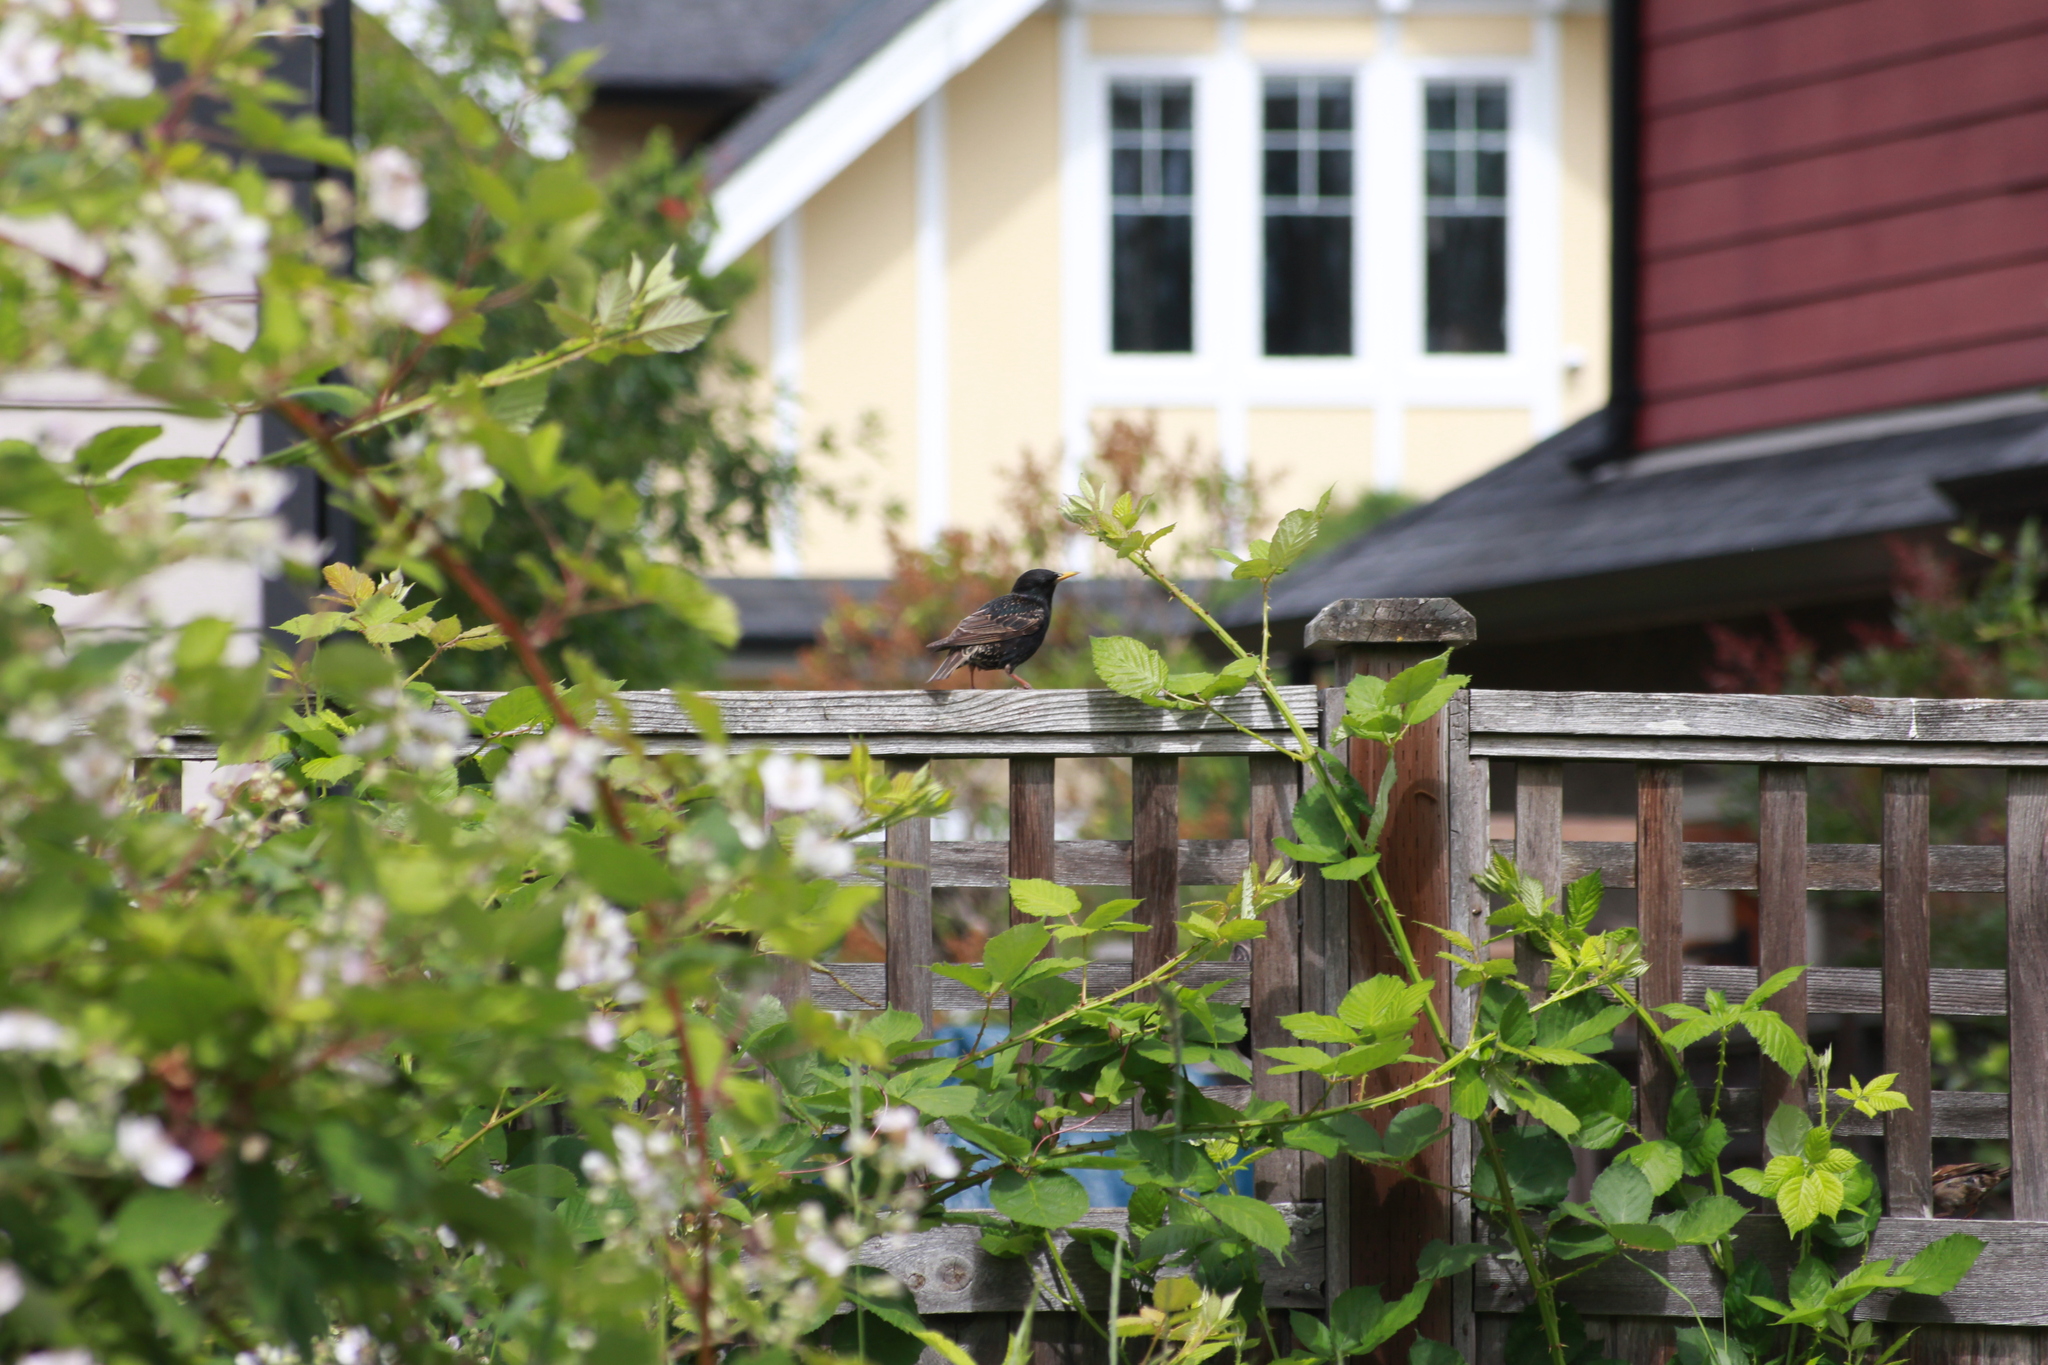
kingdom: Animalia
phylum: Chordata
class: Aves
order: Passeriformes
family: Sturnidae
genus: Sturnus
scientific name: Sturnus vulgaris
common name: Common starling
